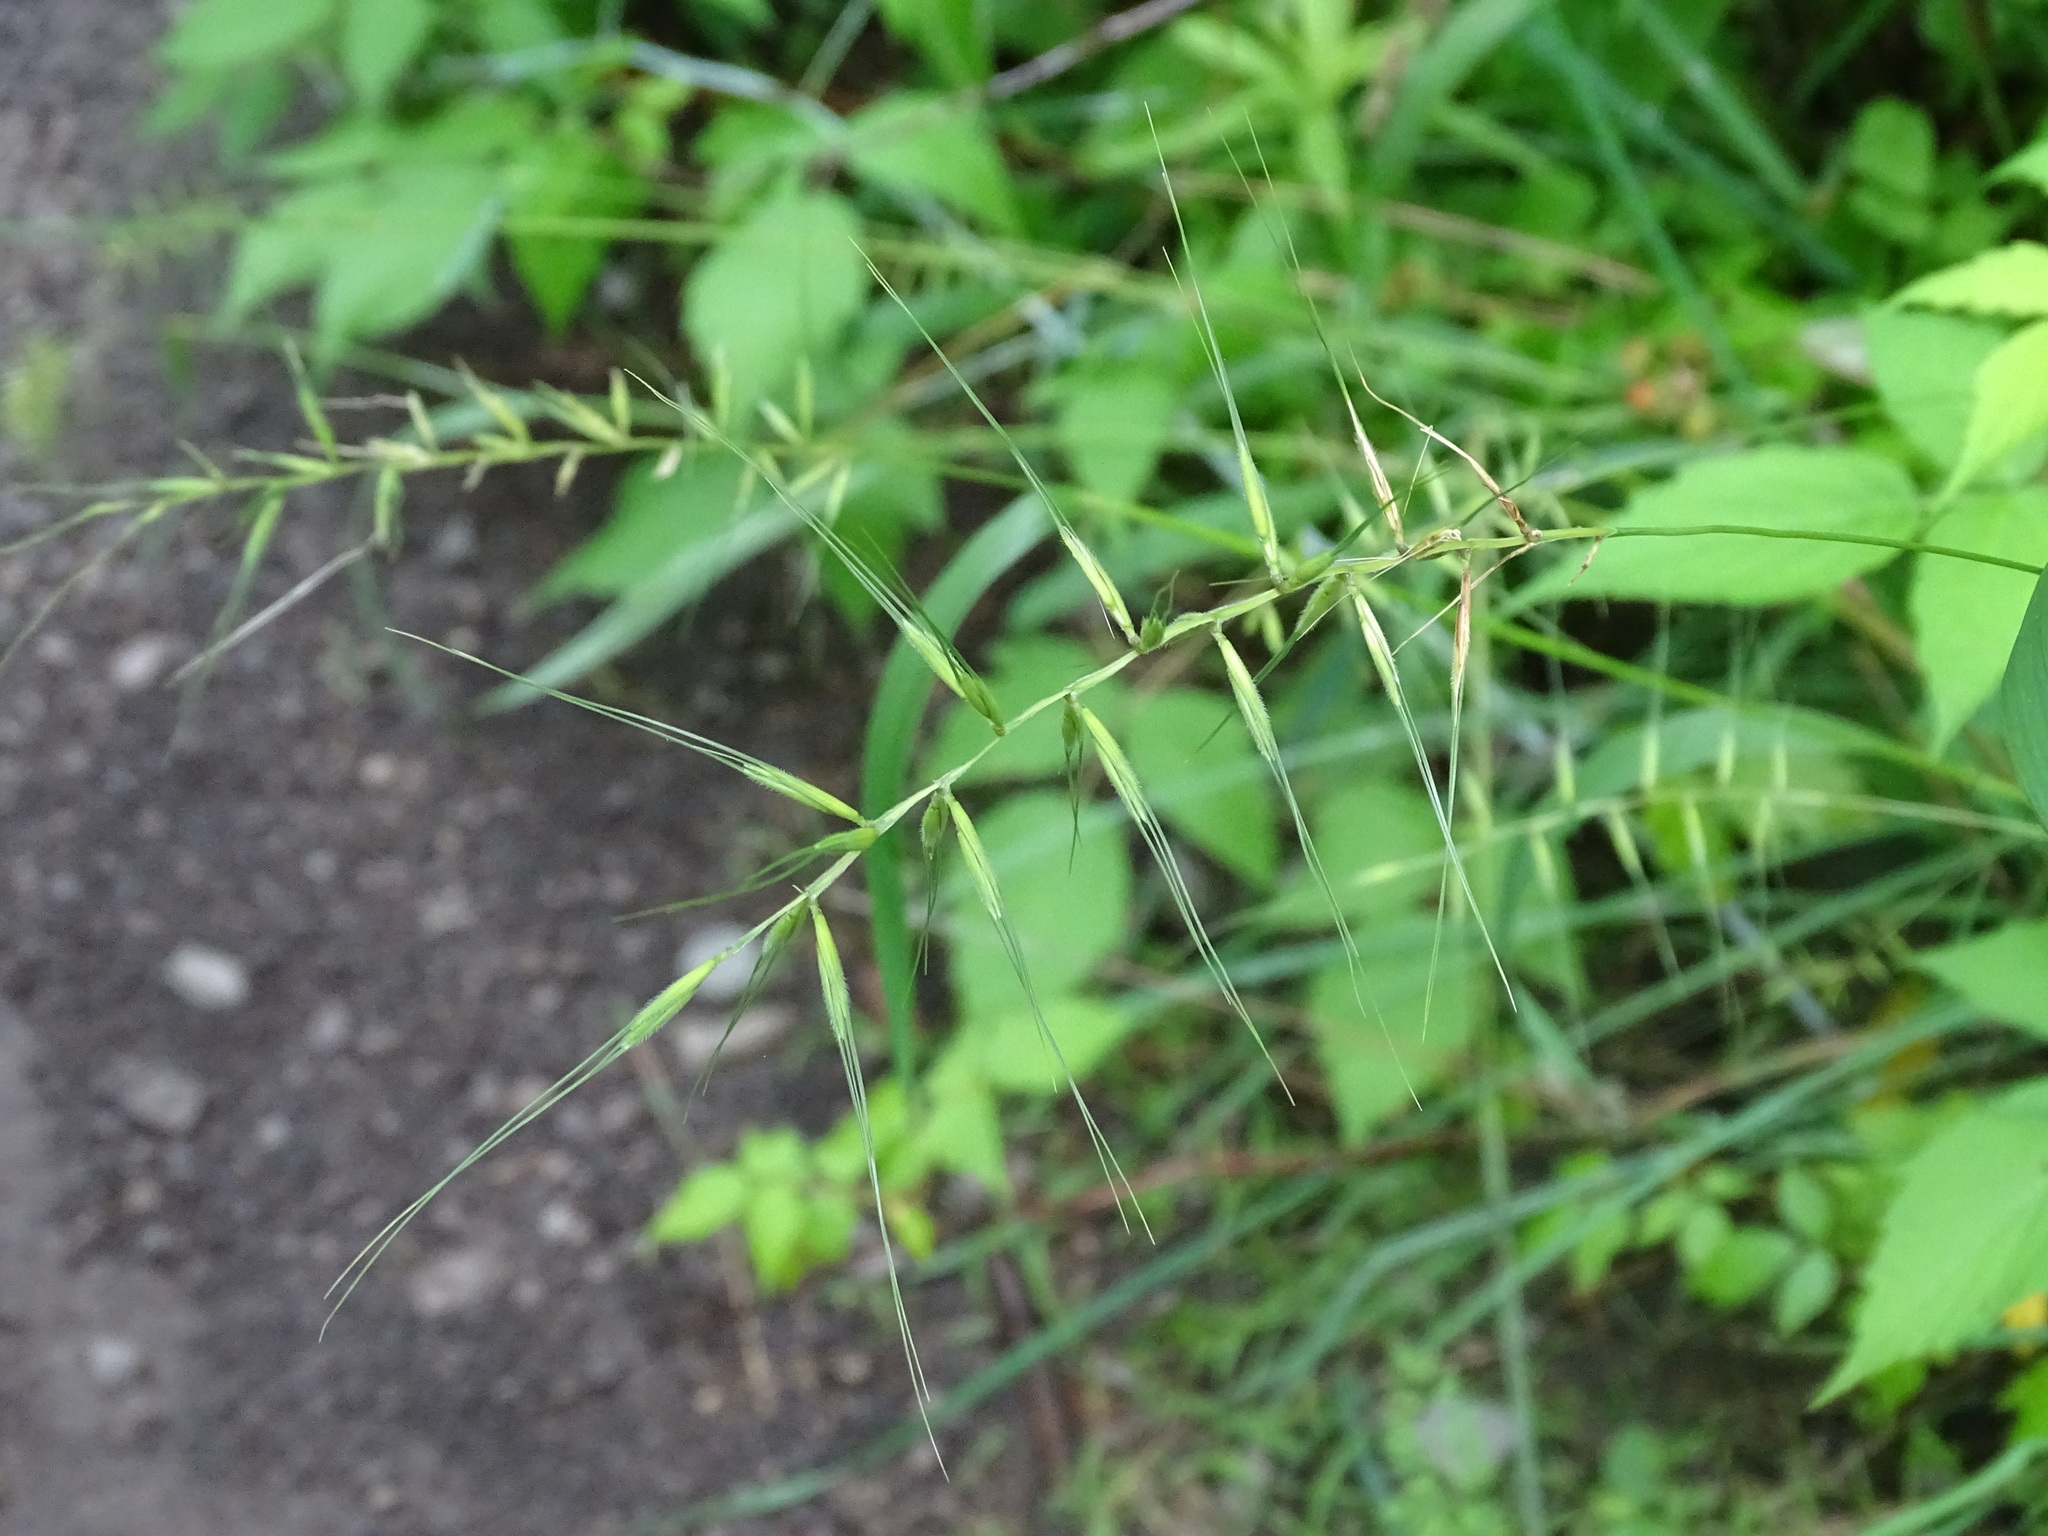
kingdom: Plantae
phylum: Tracheophyta
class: Liliopsida
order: Poales
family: Poaceae
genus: Elymus
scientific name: Elymus hystrix
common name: Bottlebrush grass
